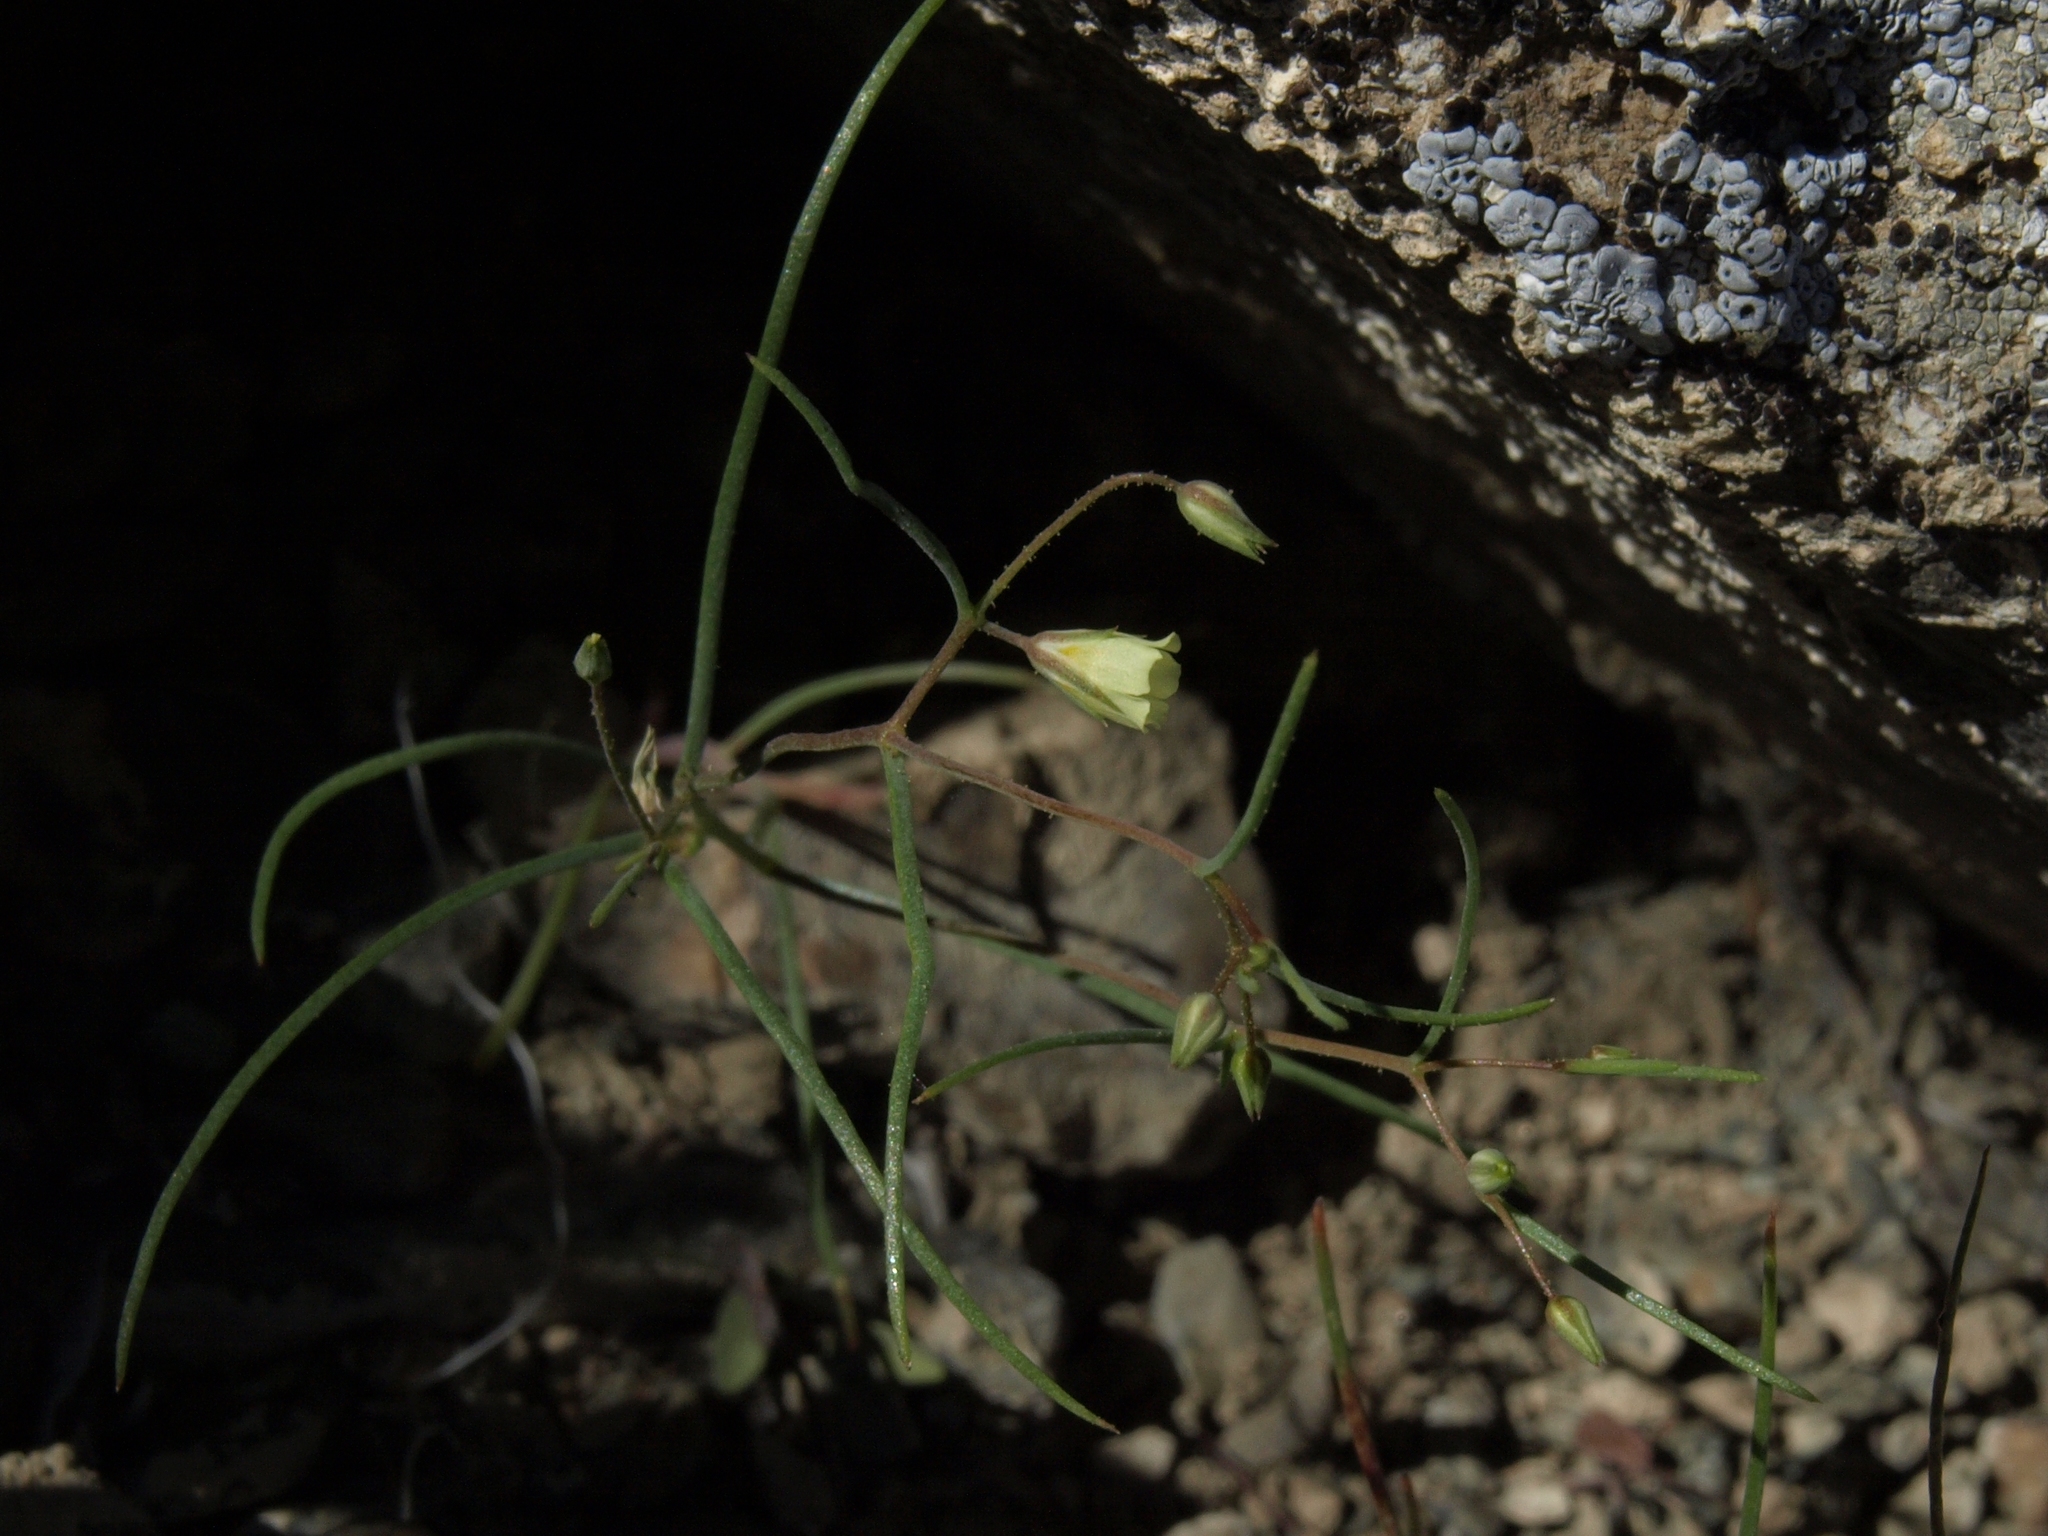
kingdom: Plantae
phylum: Tracheophyta
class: Magnoliopsida
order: Ericales
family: Polemoniaceae
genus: Linanthus
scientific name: Linanthus filiformis
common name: Yellow gilia
